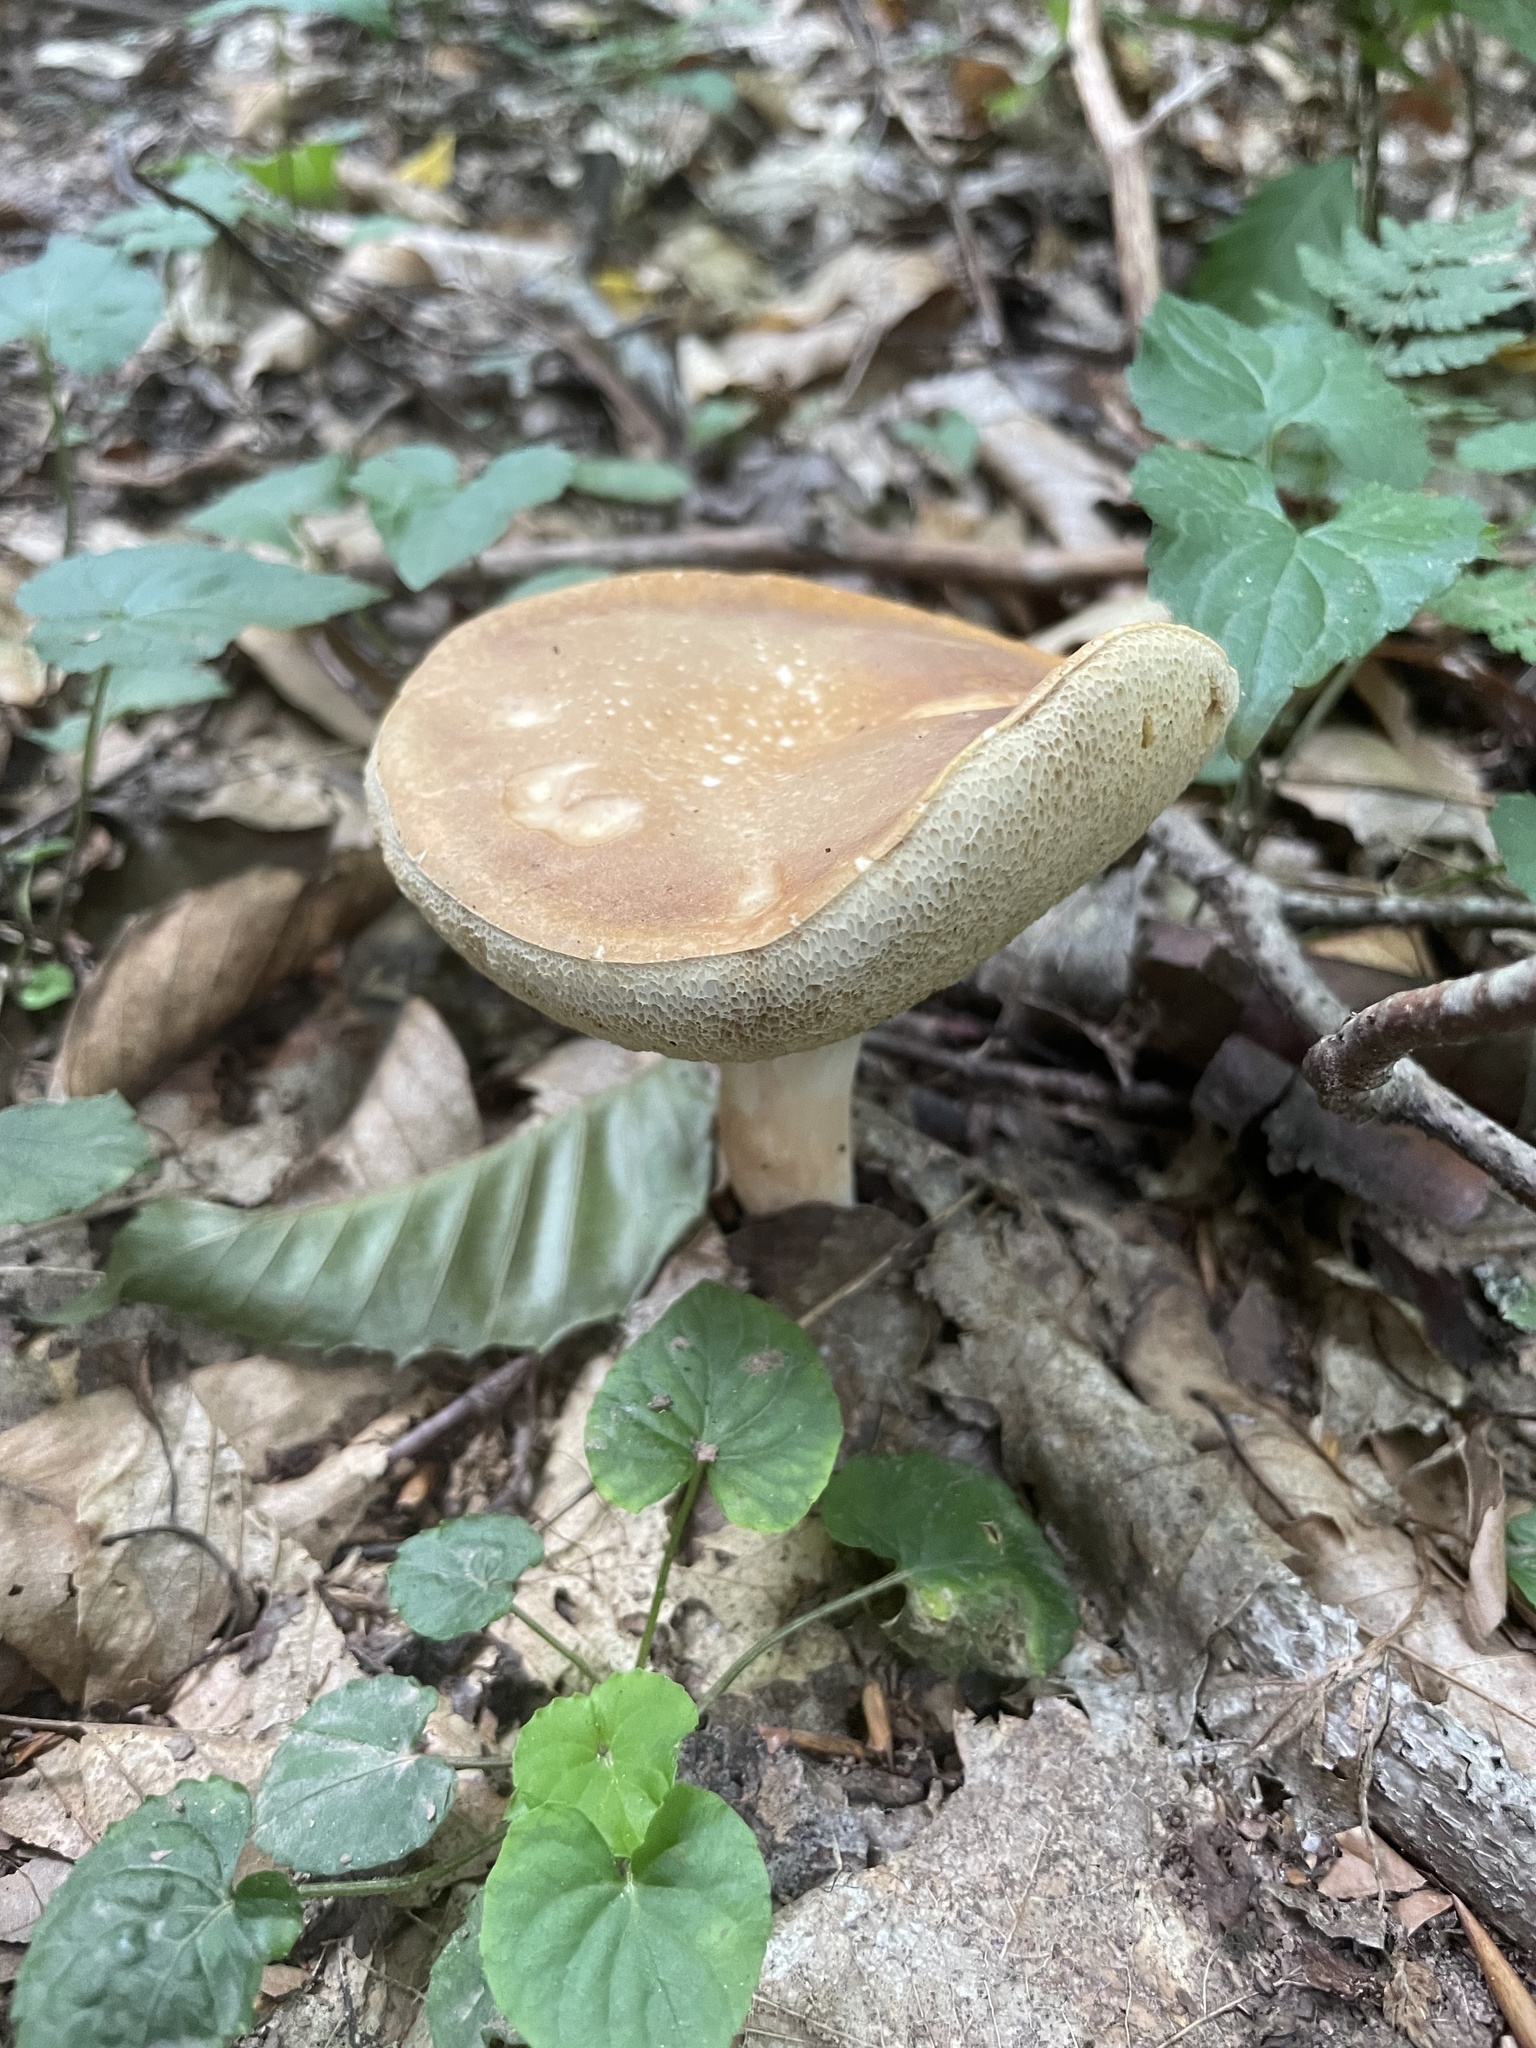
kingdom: Fungi
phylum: Basidiomycota
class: Agaricomycetes
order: Boletales
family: Boletaceae
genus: Xanthoconium
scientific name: Xanthoconium affine
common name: Spotted bolete
